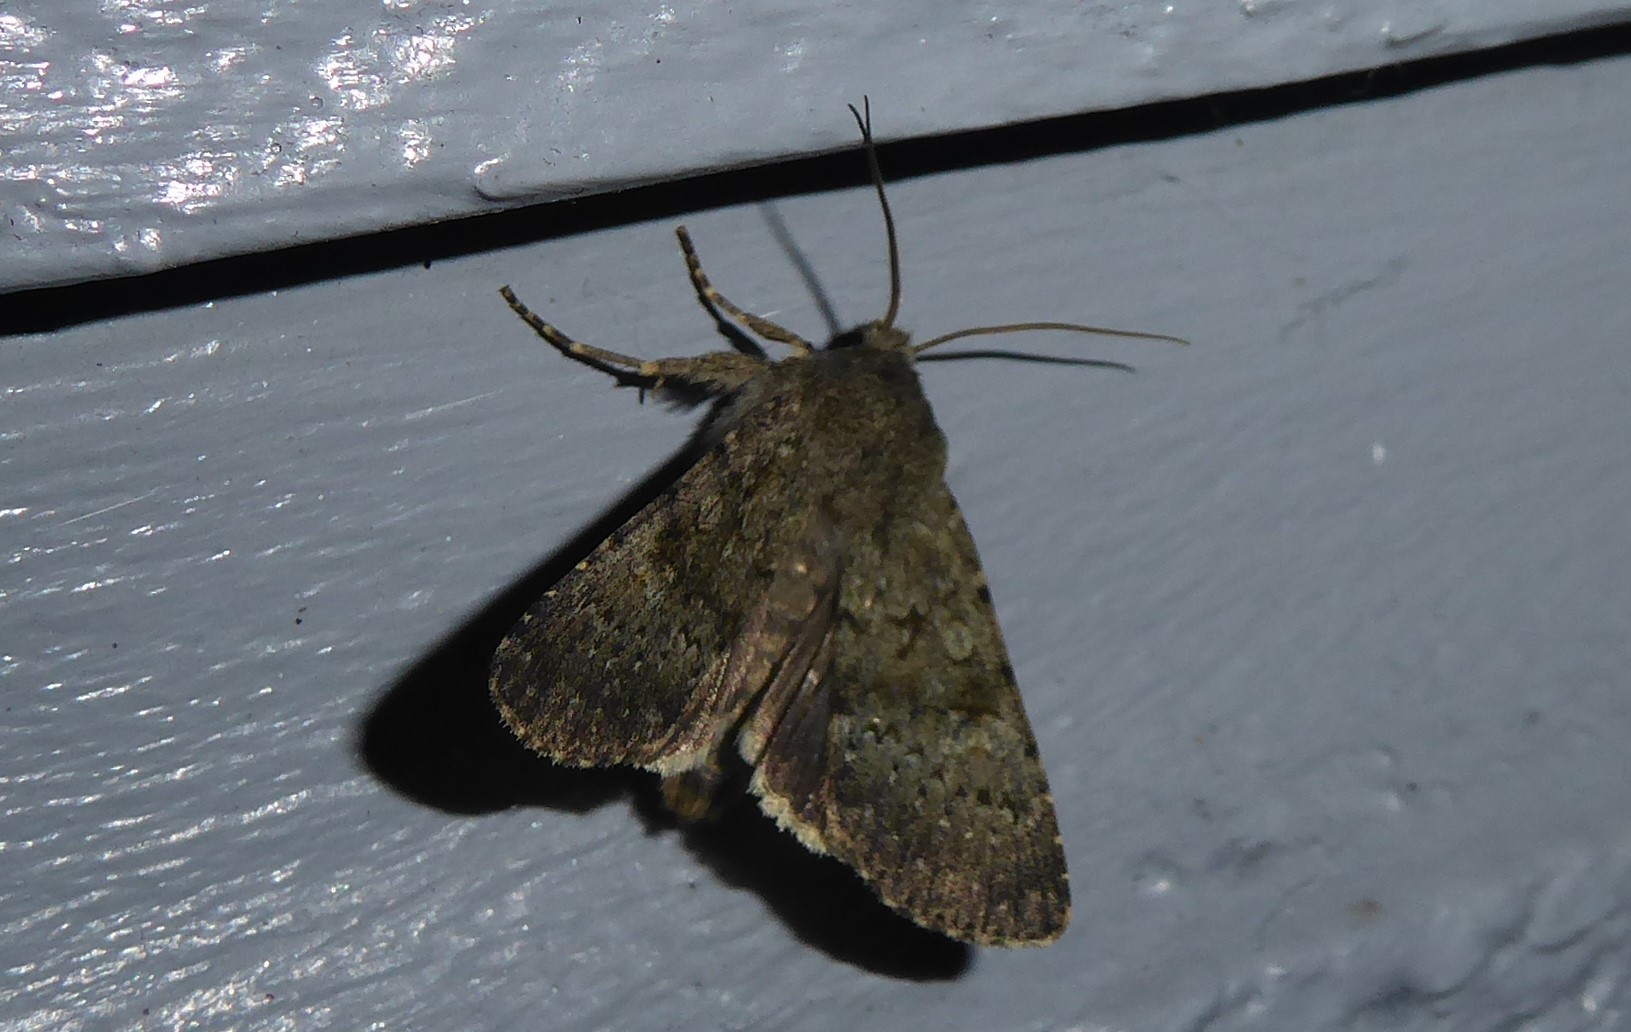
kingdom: Animalia
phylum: Arthropoda
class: Insecta
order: Lepidoptera
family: Noctuidae
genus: Ichneutica
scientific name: Ichneutica moderata
